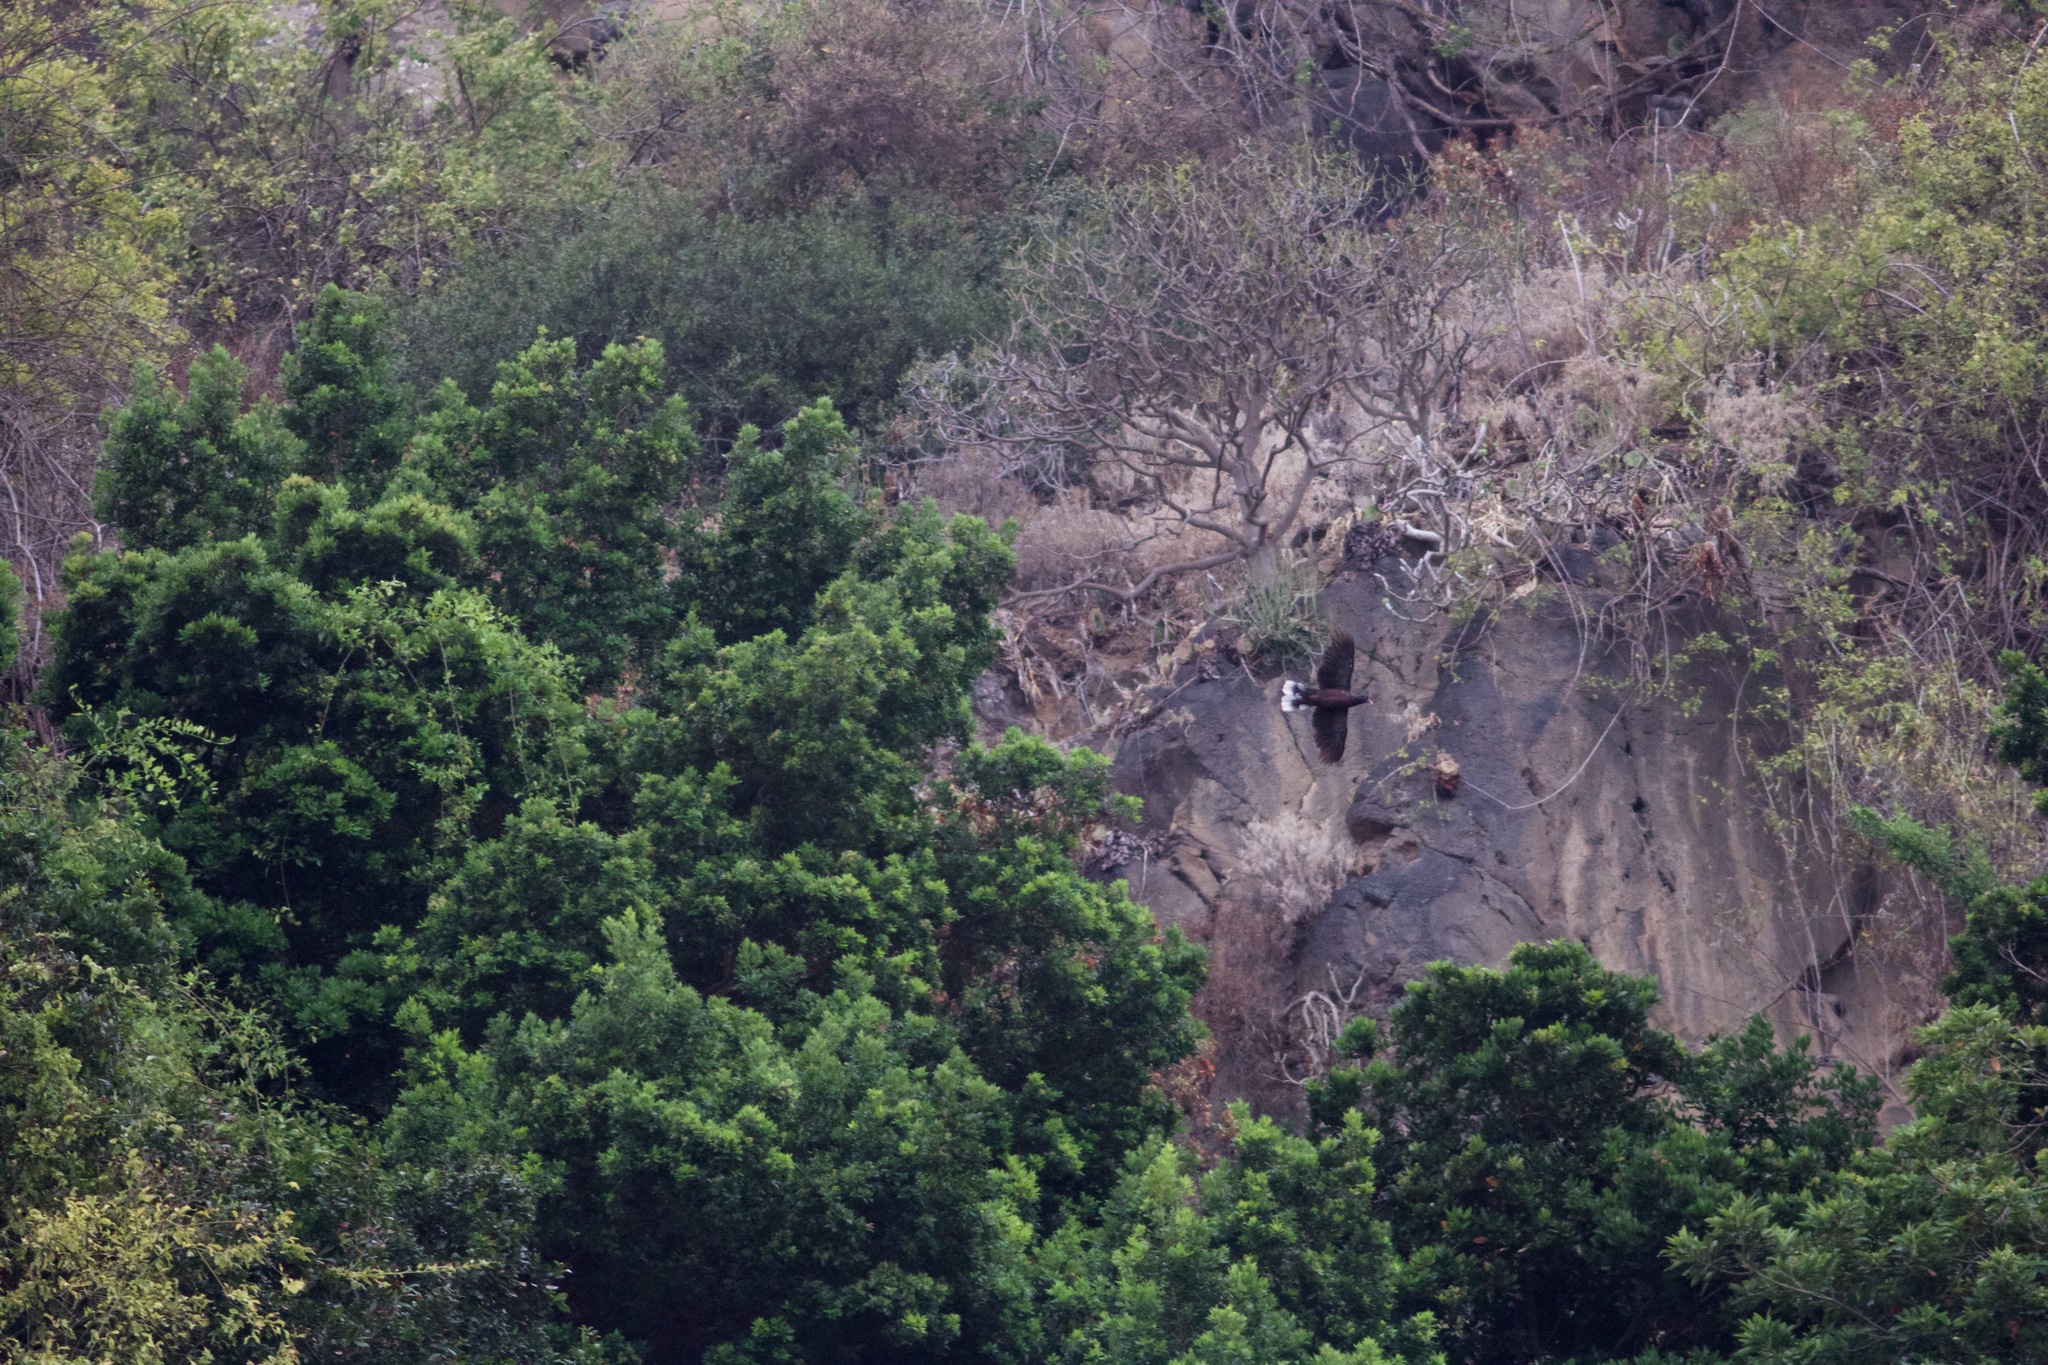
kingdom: Animalia
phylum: Chordata
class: Aves
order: Columbiformes
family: Columbidae
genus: Columba
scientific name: Columba junoniae
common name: Laurel pigeon
